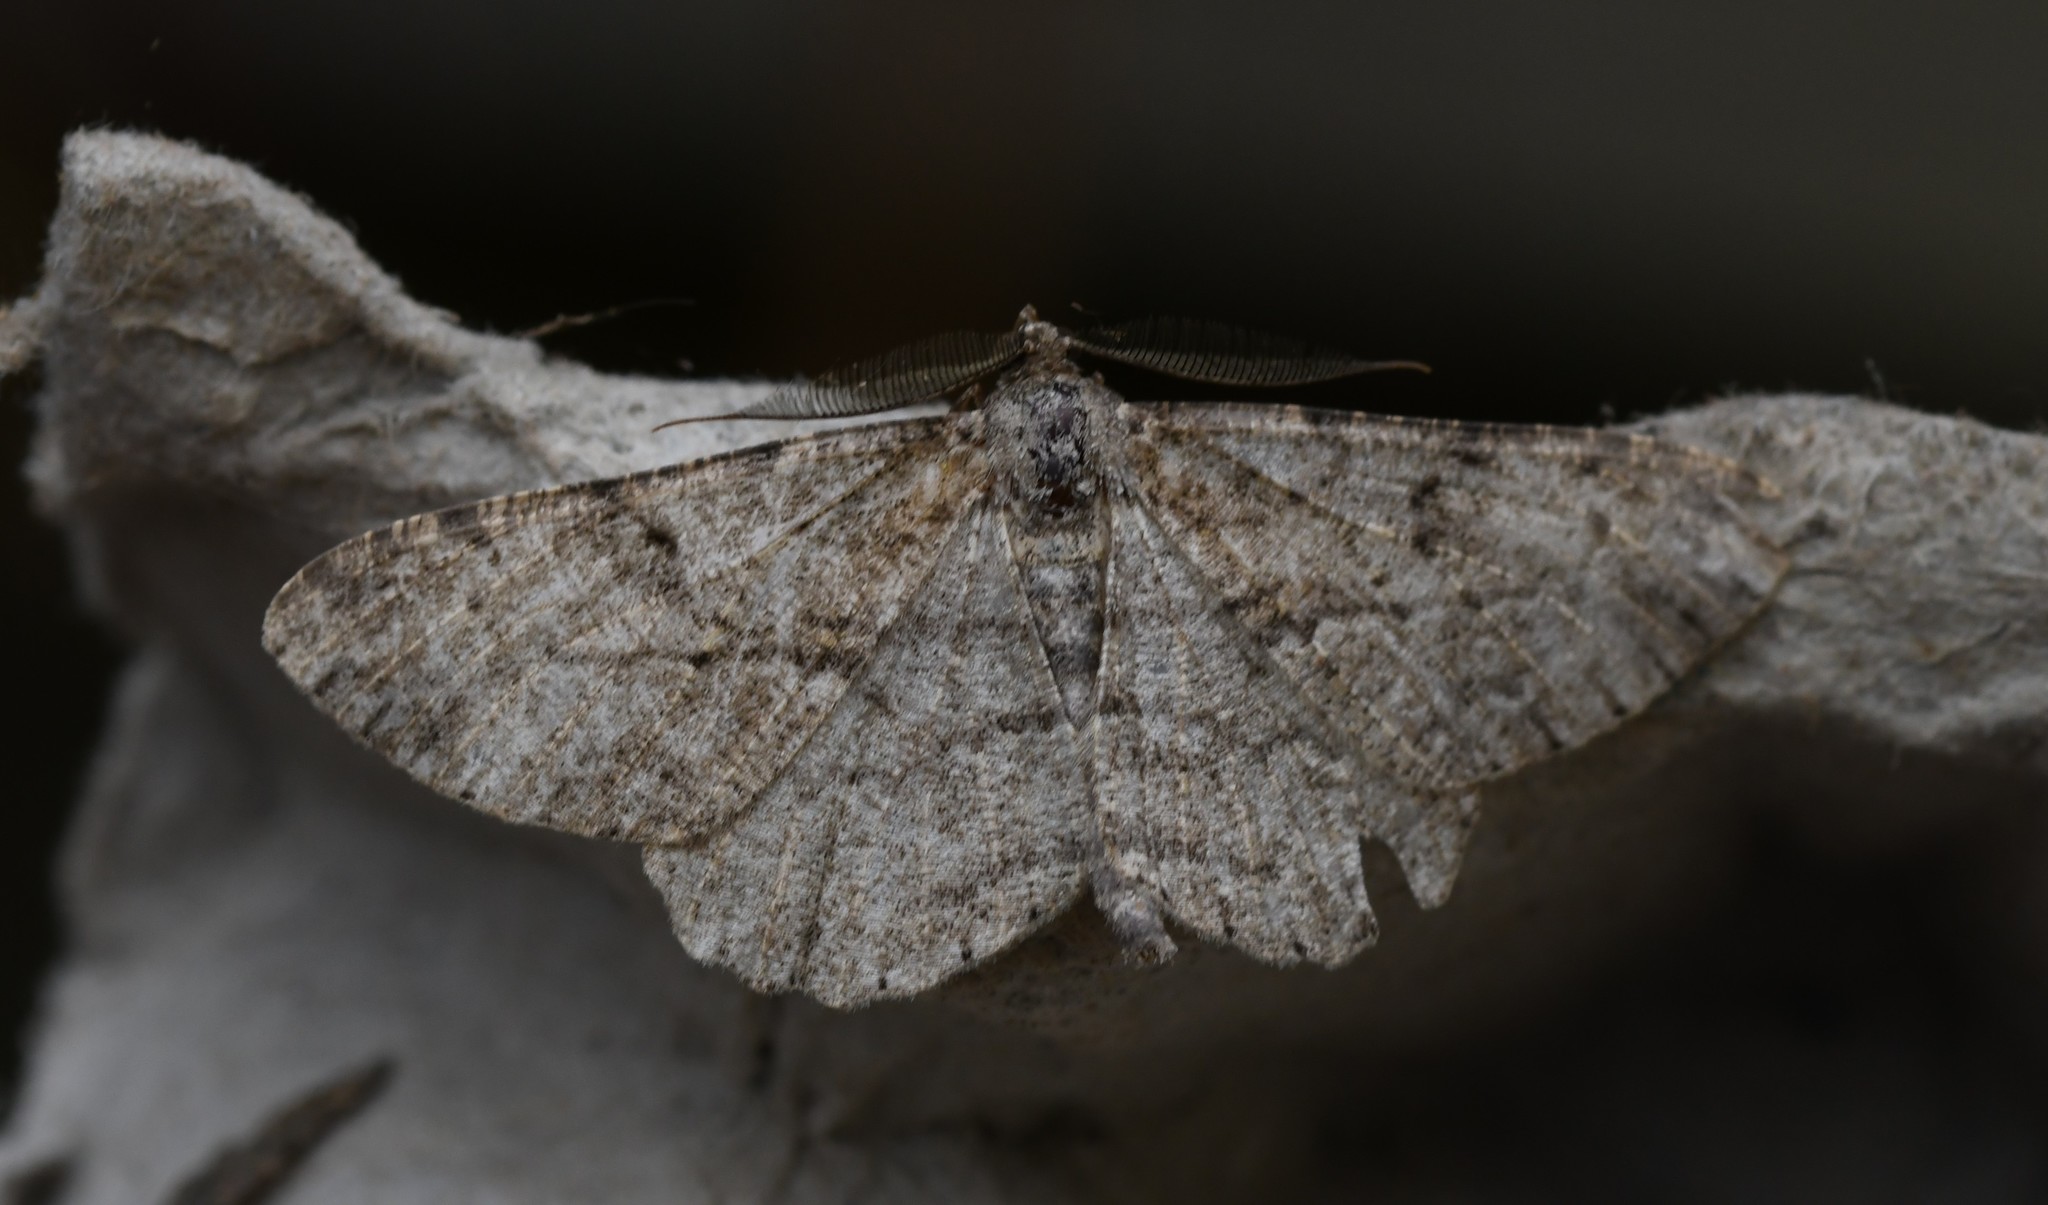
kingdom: Animalia
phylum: Arthropoda
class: Insecta
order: Lepidoptera
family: Geometridae
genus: Peribatodes
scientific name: Peribatodes rhomboidaria
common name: Willow beauty
